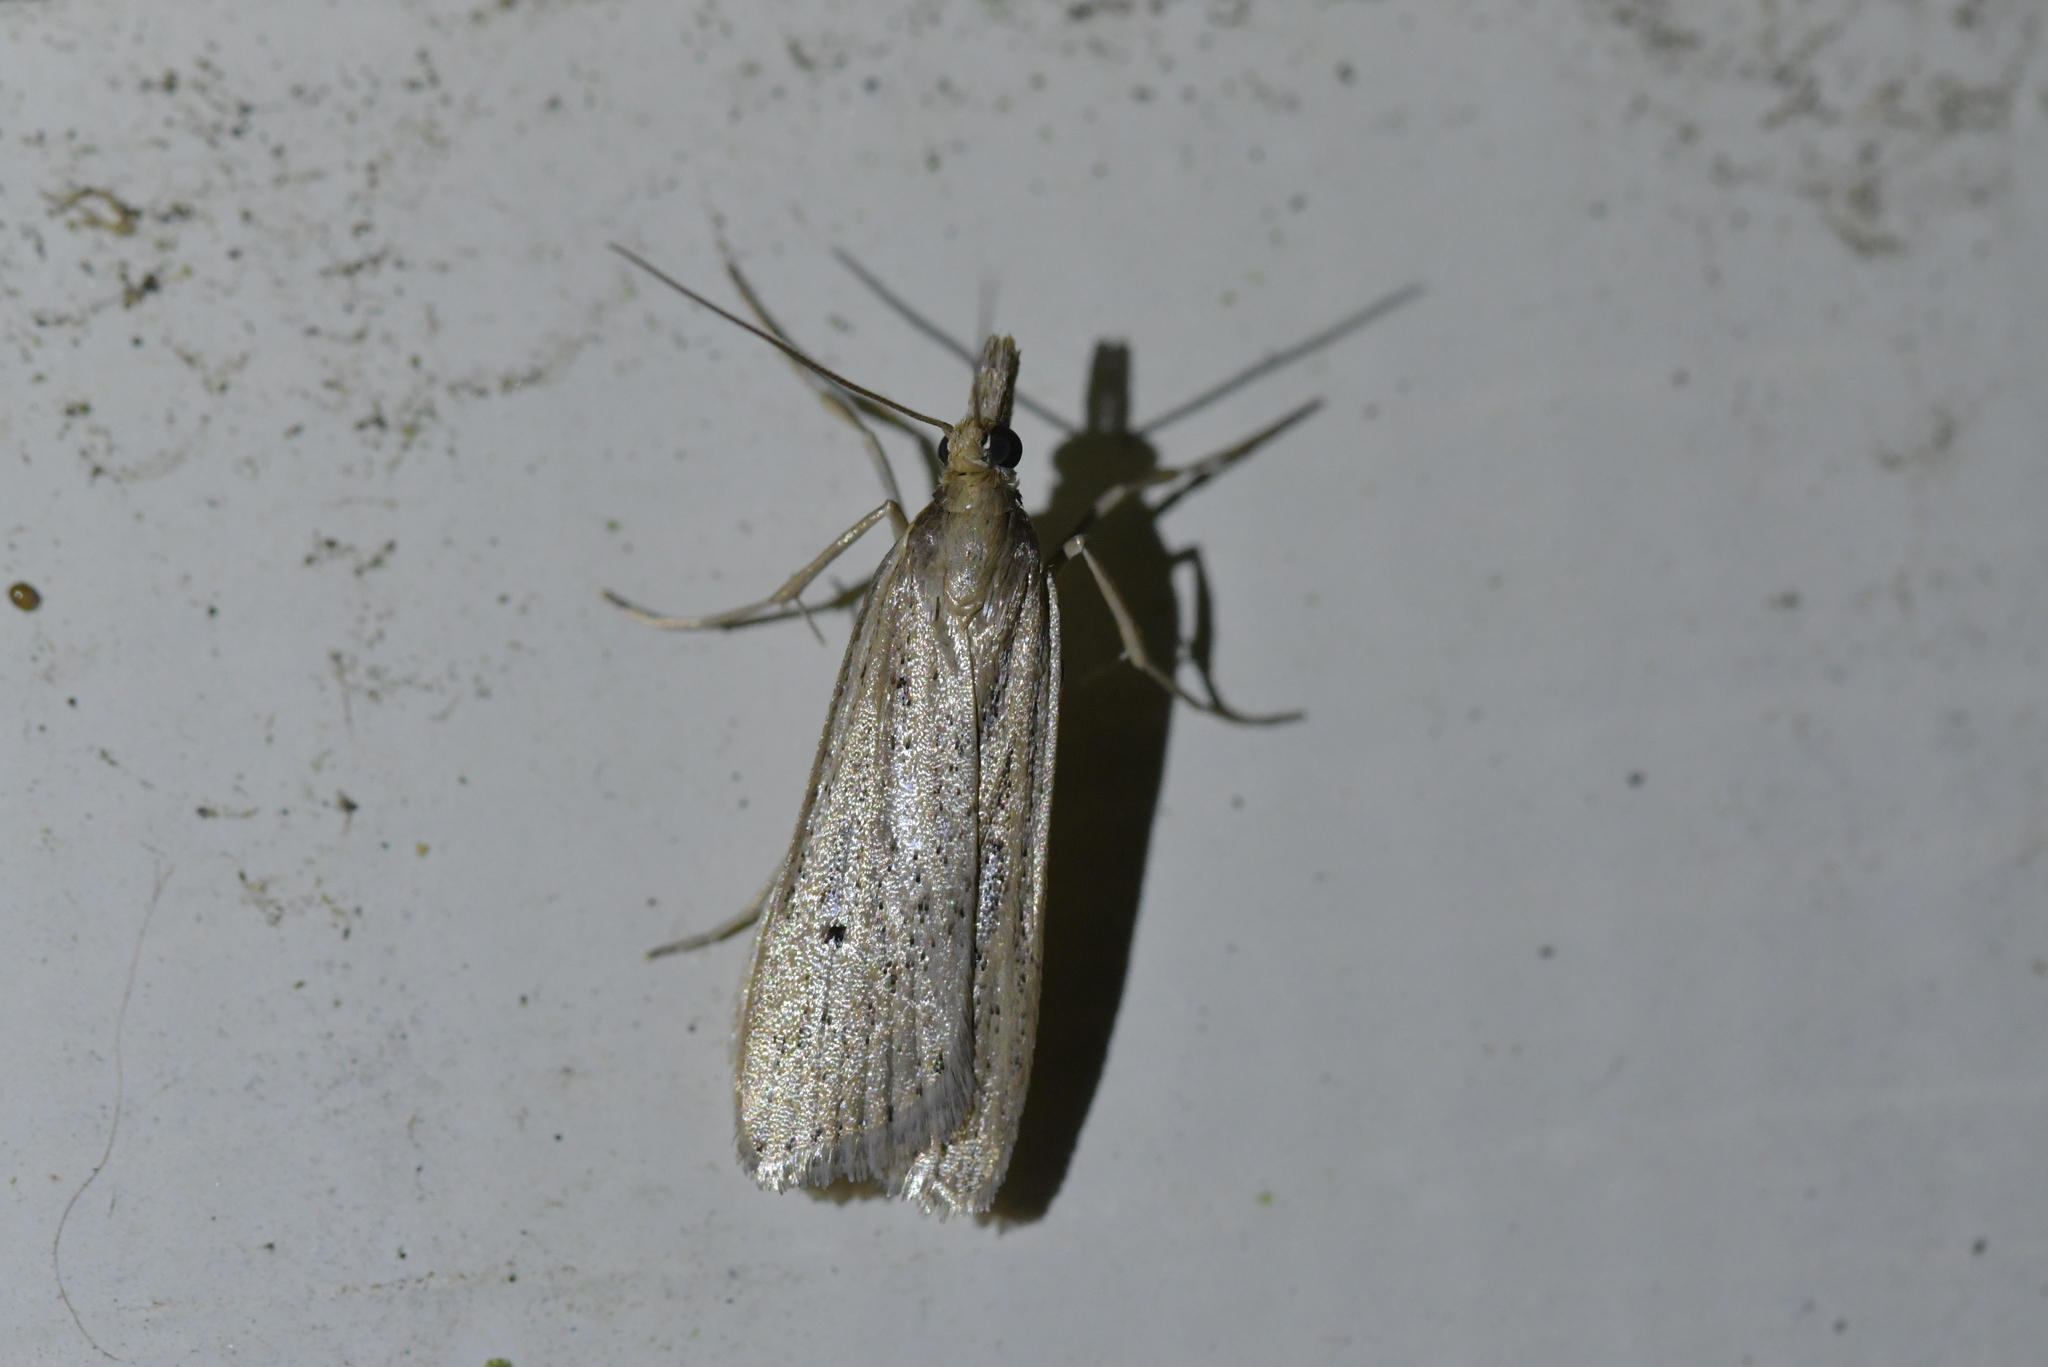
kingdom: Animalia
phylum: Arthropoda
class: Insecta
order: Lepidoptera
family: Crambidae
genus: Eudonia
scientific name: Eudonia sabulosella
